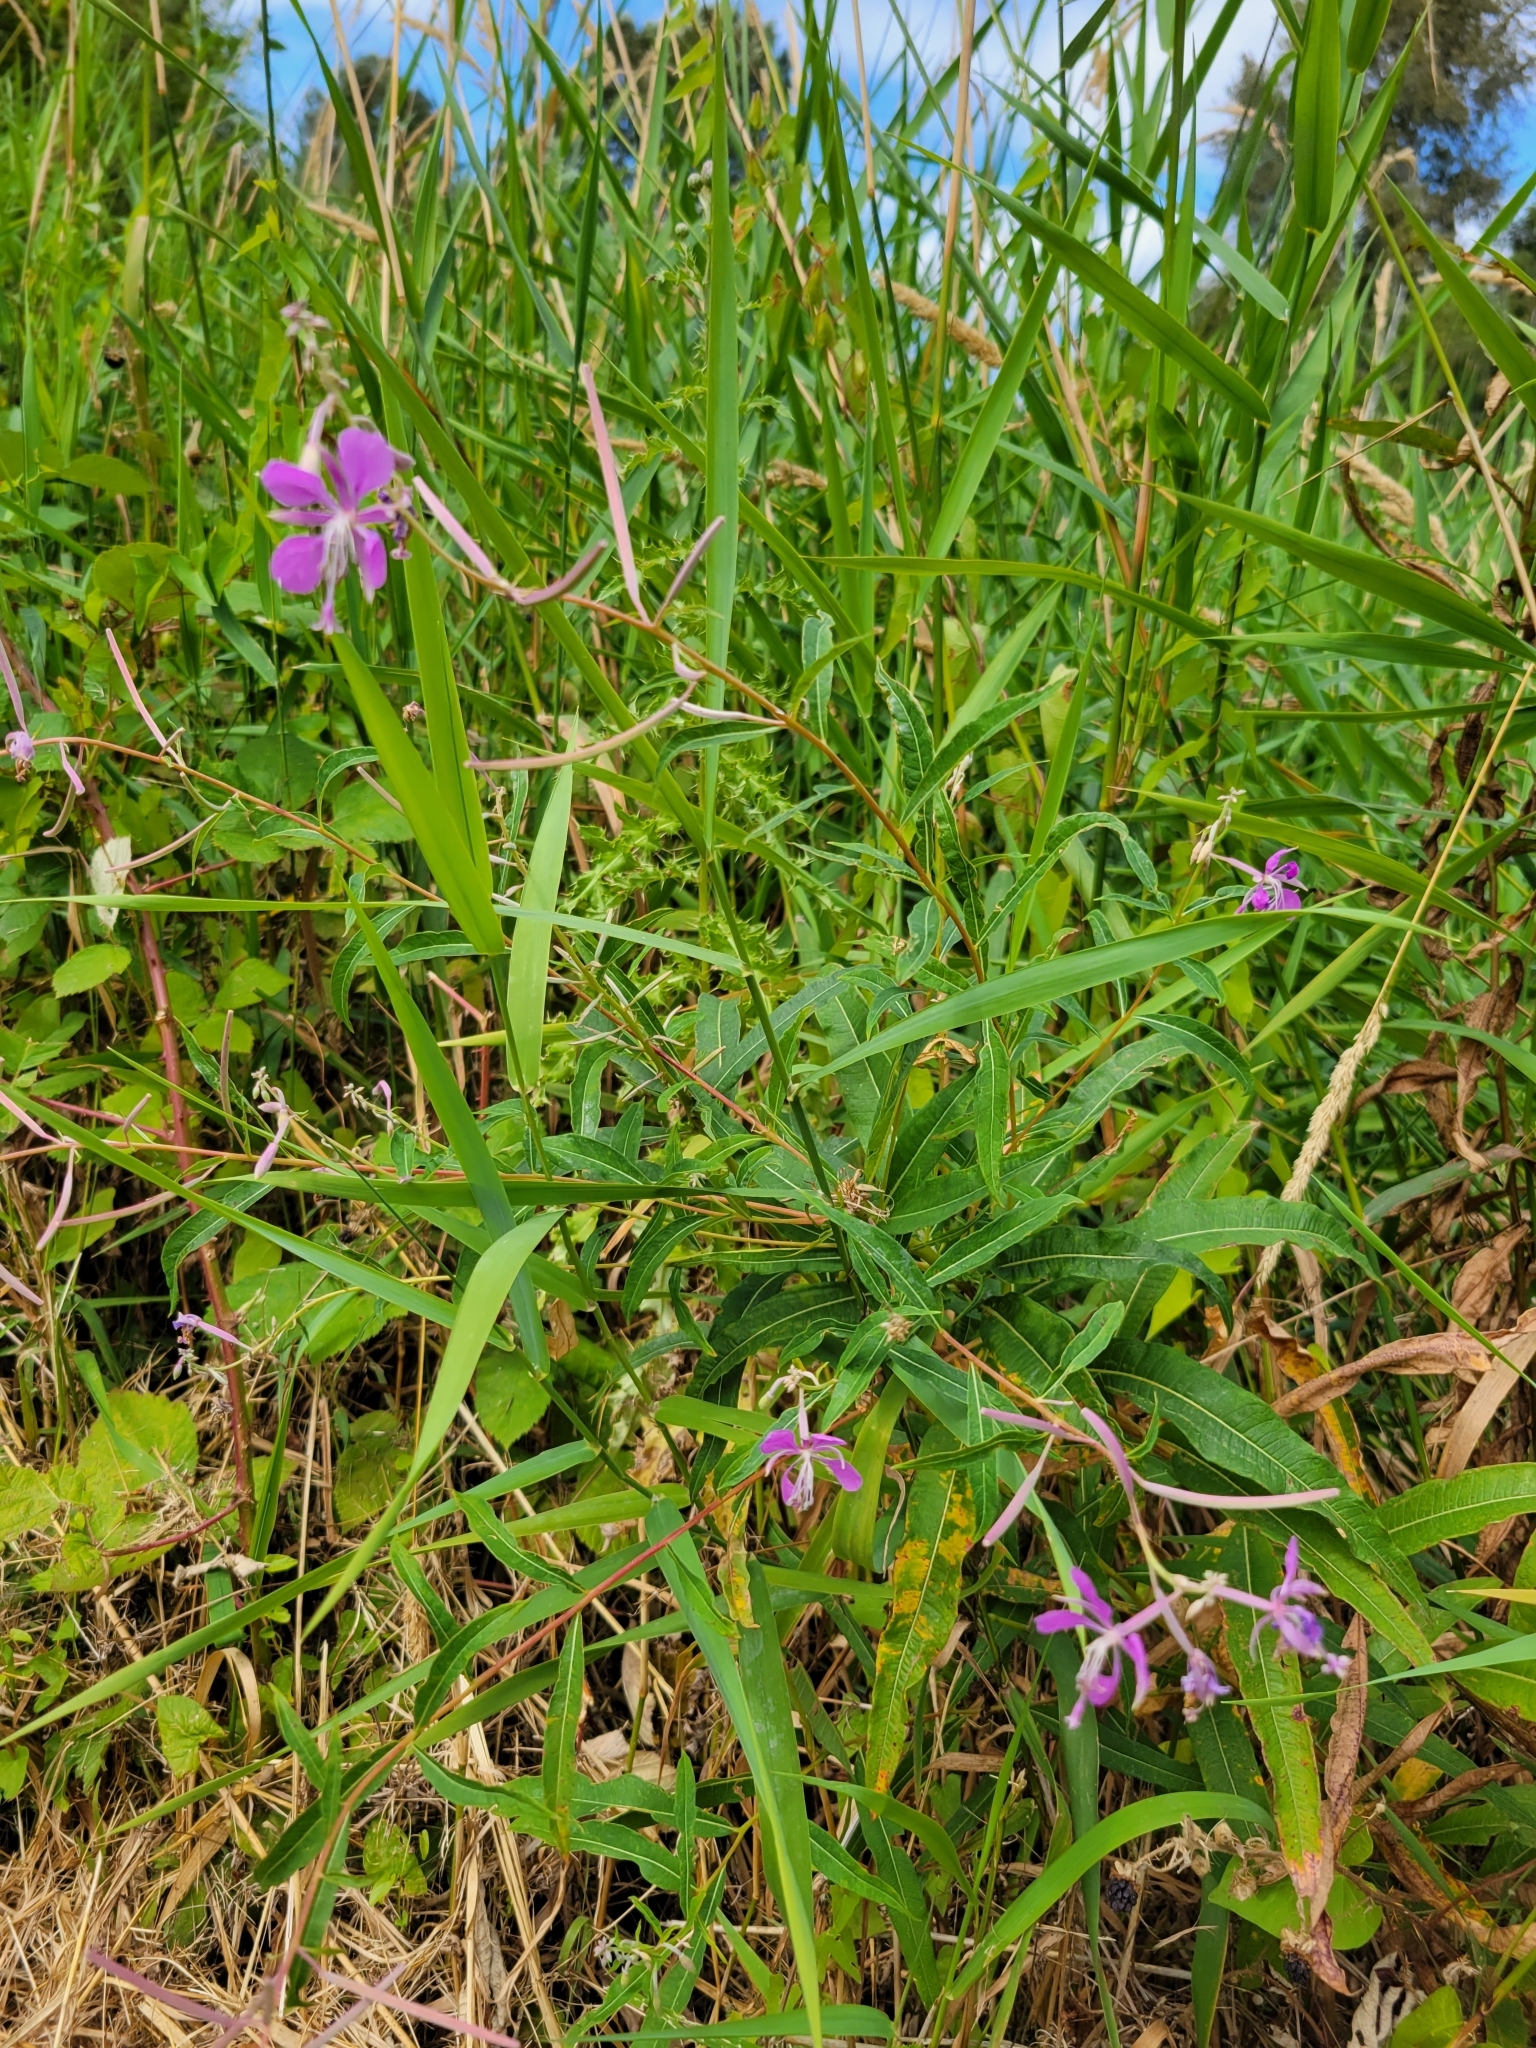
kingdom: Plantae
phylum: Tracheophyta
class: Magnoliopsida
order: Myrtales
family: Onagraceae
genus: Chamaenerion
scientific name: Chamaenerion angustifolium
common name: Fireweed
